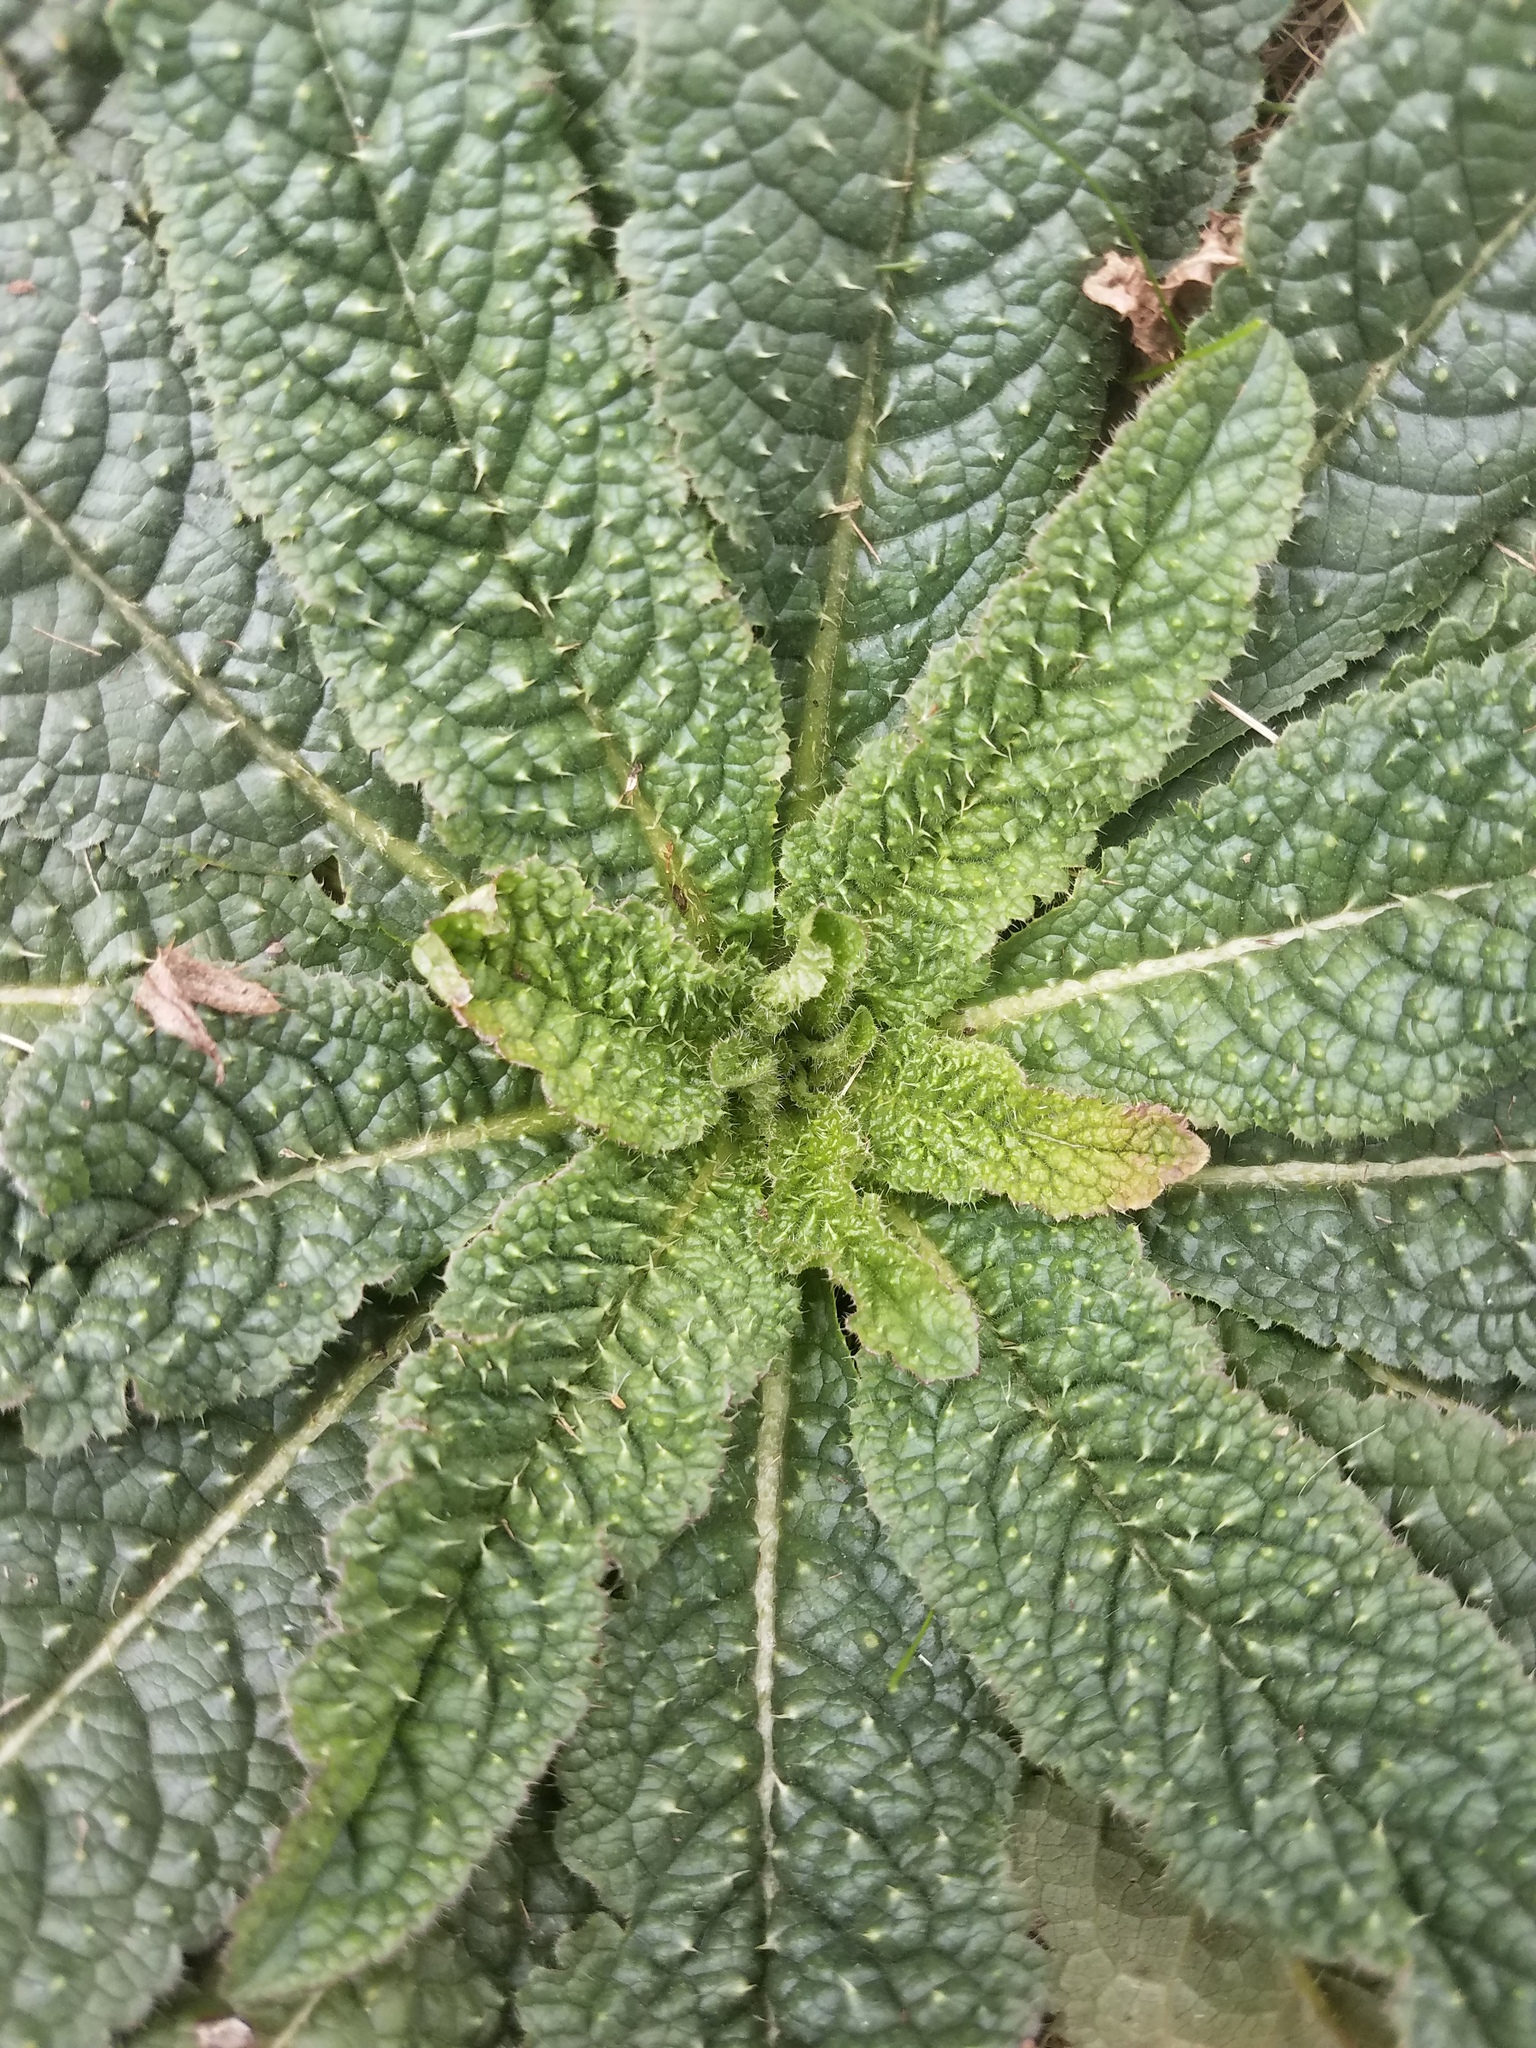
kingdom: Plantae
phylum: Tracheophyta
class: Magnoliopsida
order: Dipsacales
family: Caprifoliaceae
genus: Dipsacus
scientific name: Dipsacus fullonum
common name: Teasel
